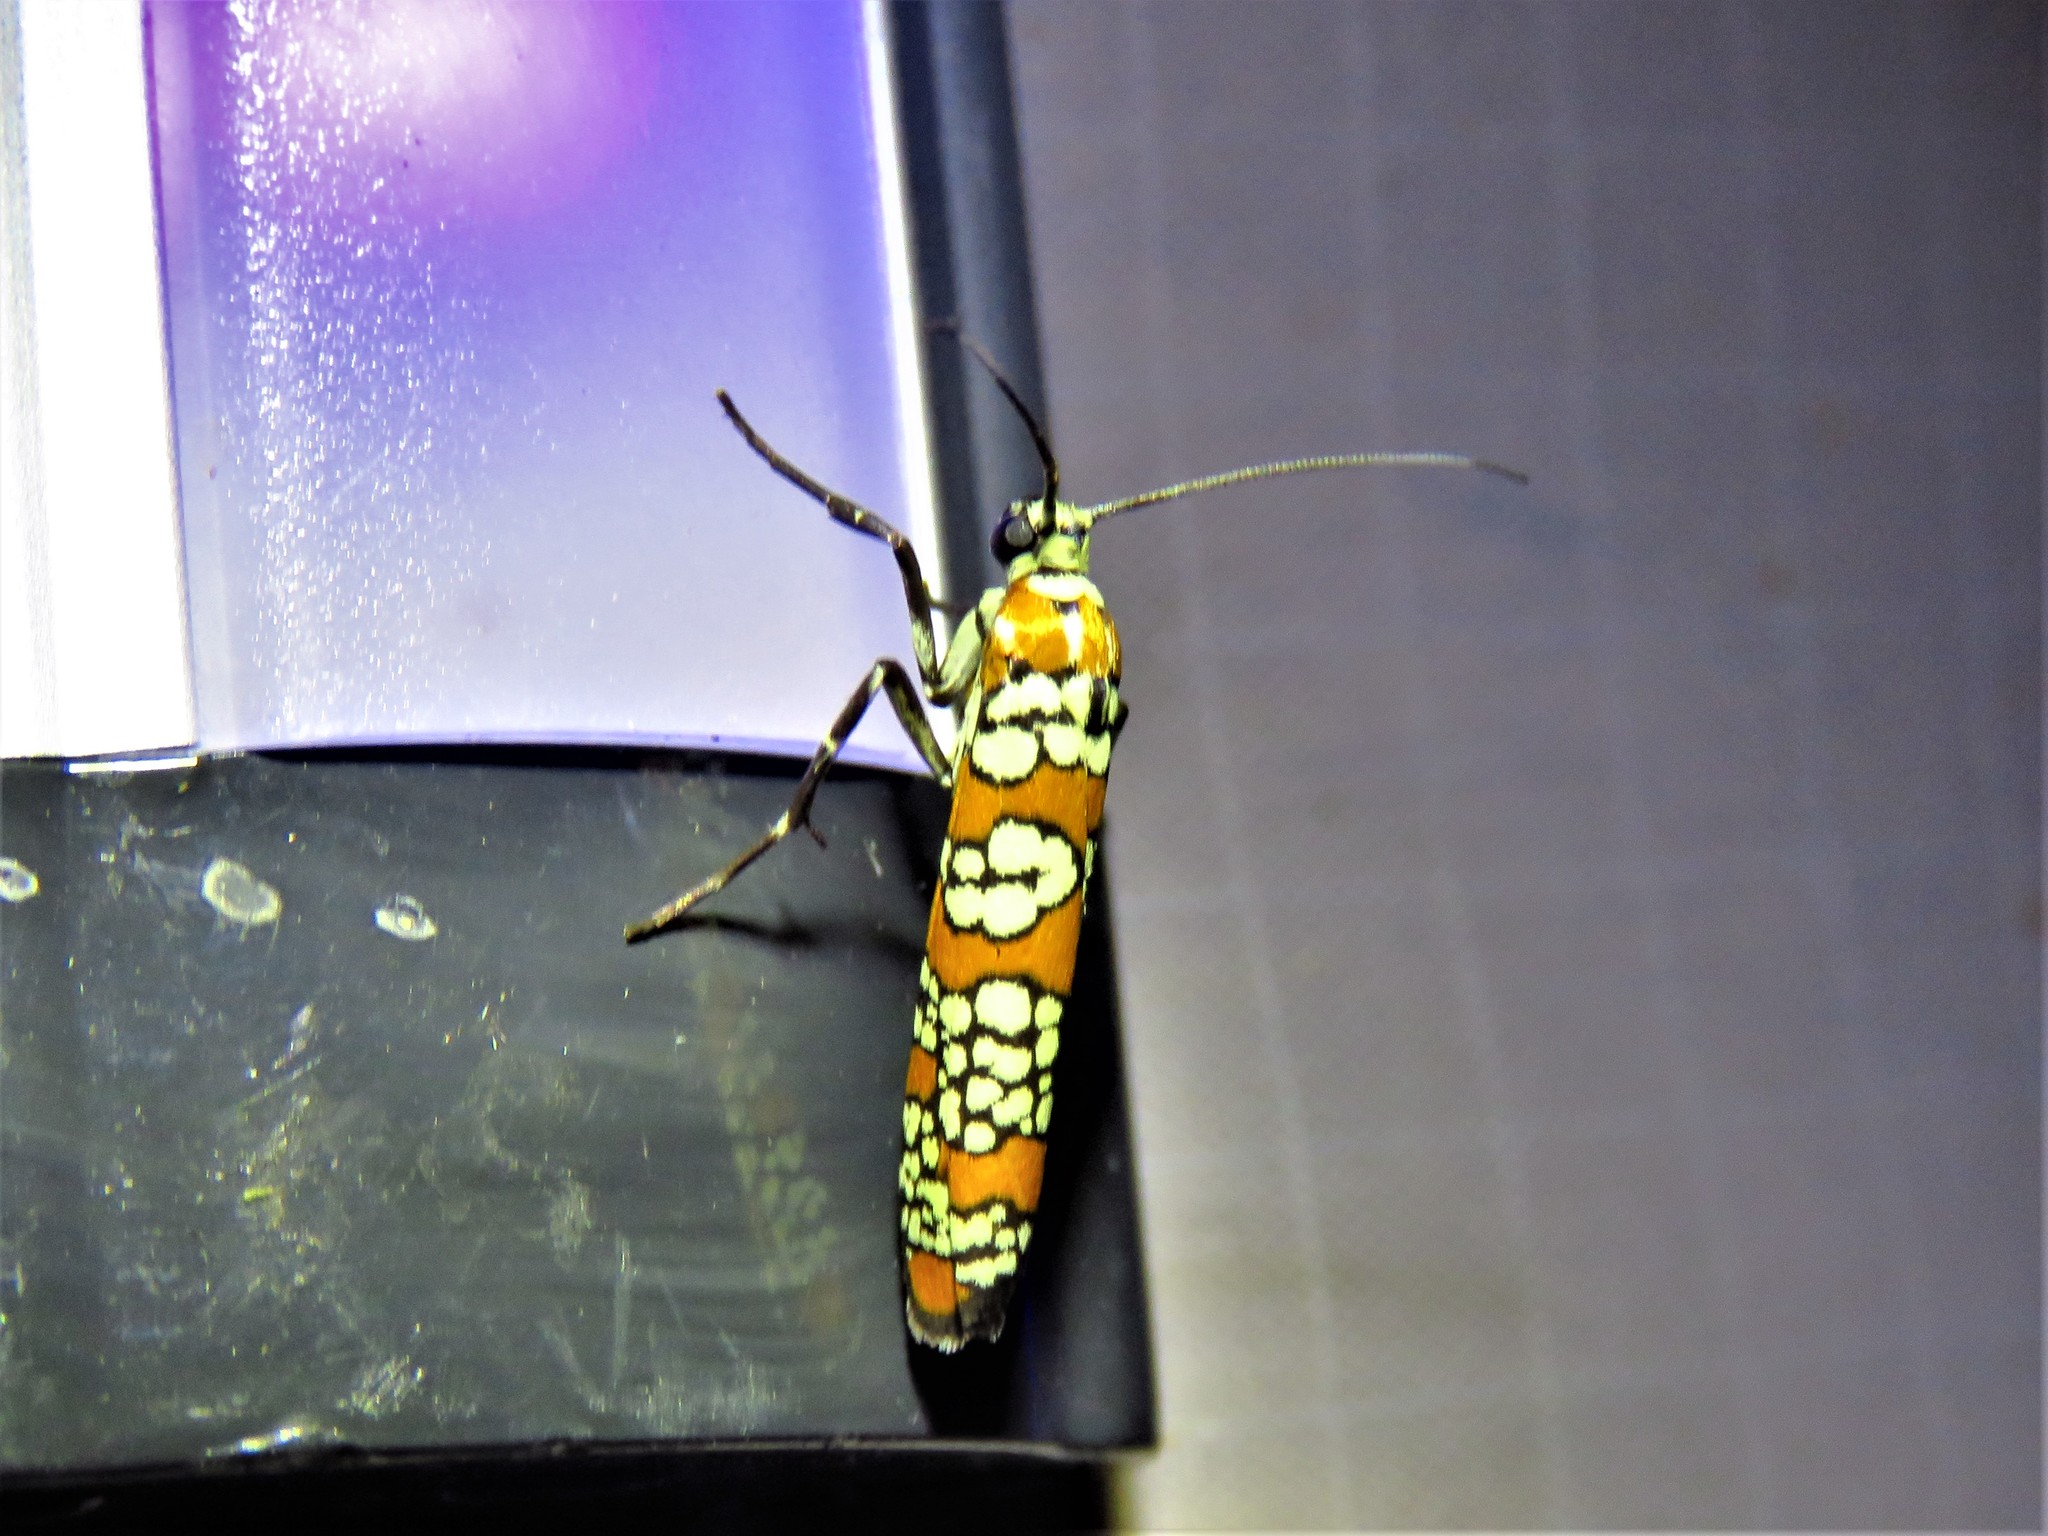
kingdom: Animalia
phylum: Arthropoda
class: Insecta
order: Lepidoptera
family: Attevidae
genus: Atteva
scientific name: Atteva punctella
